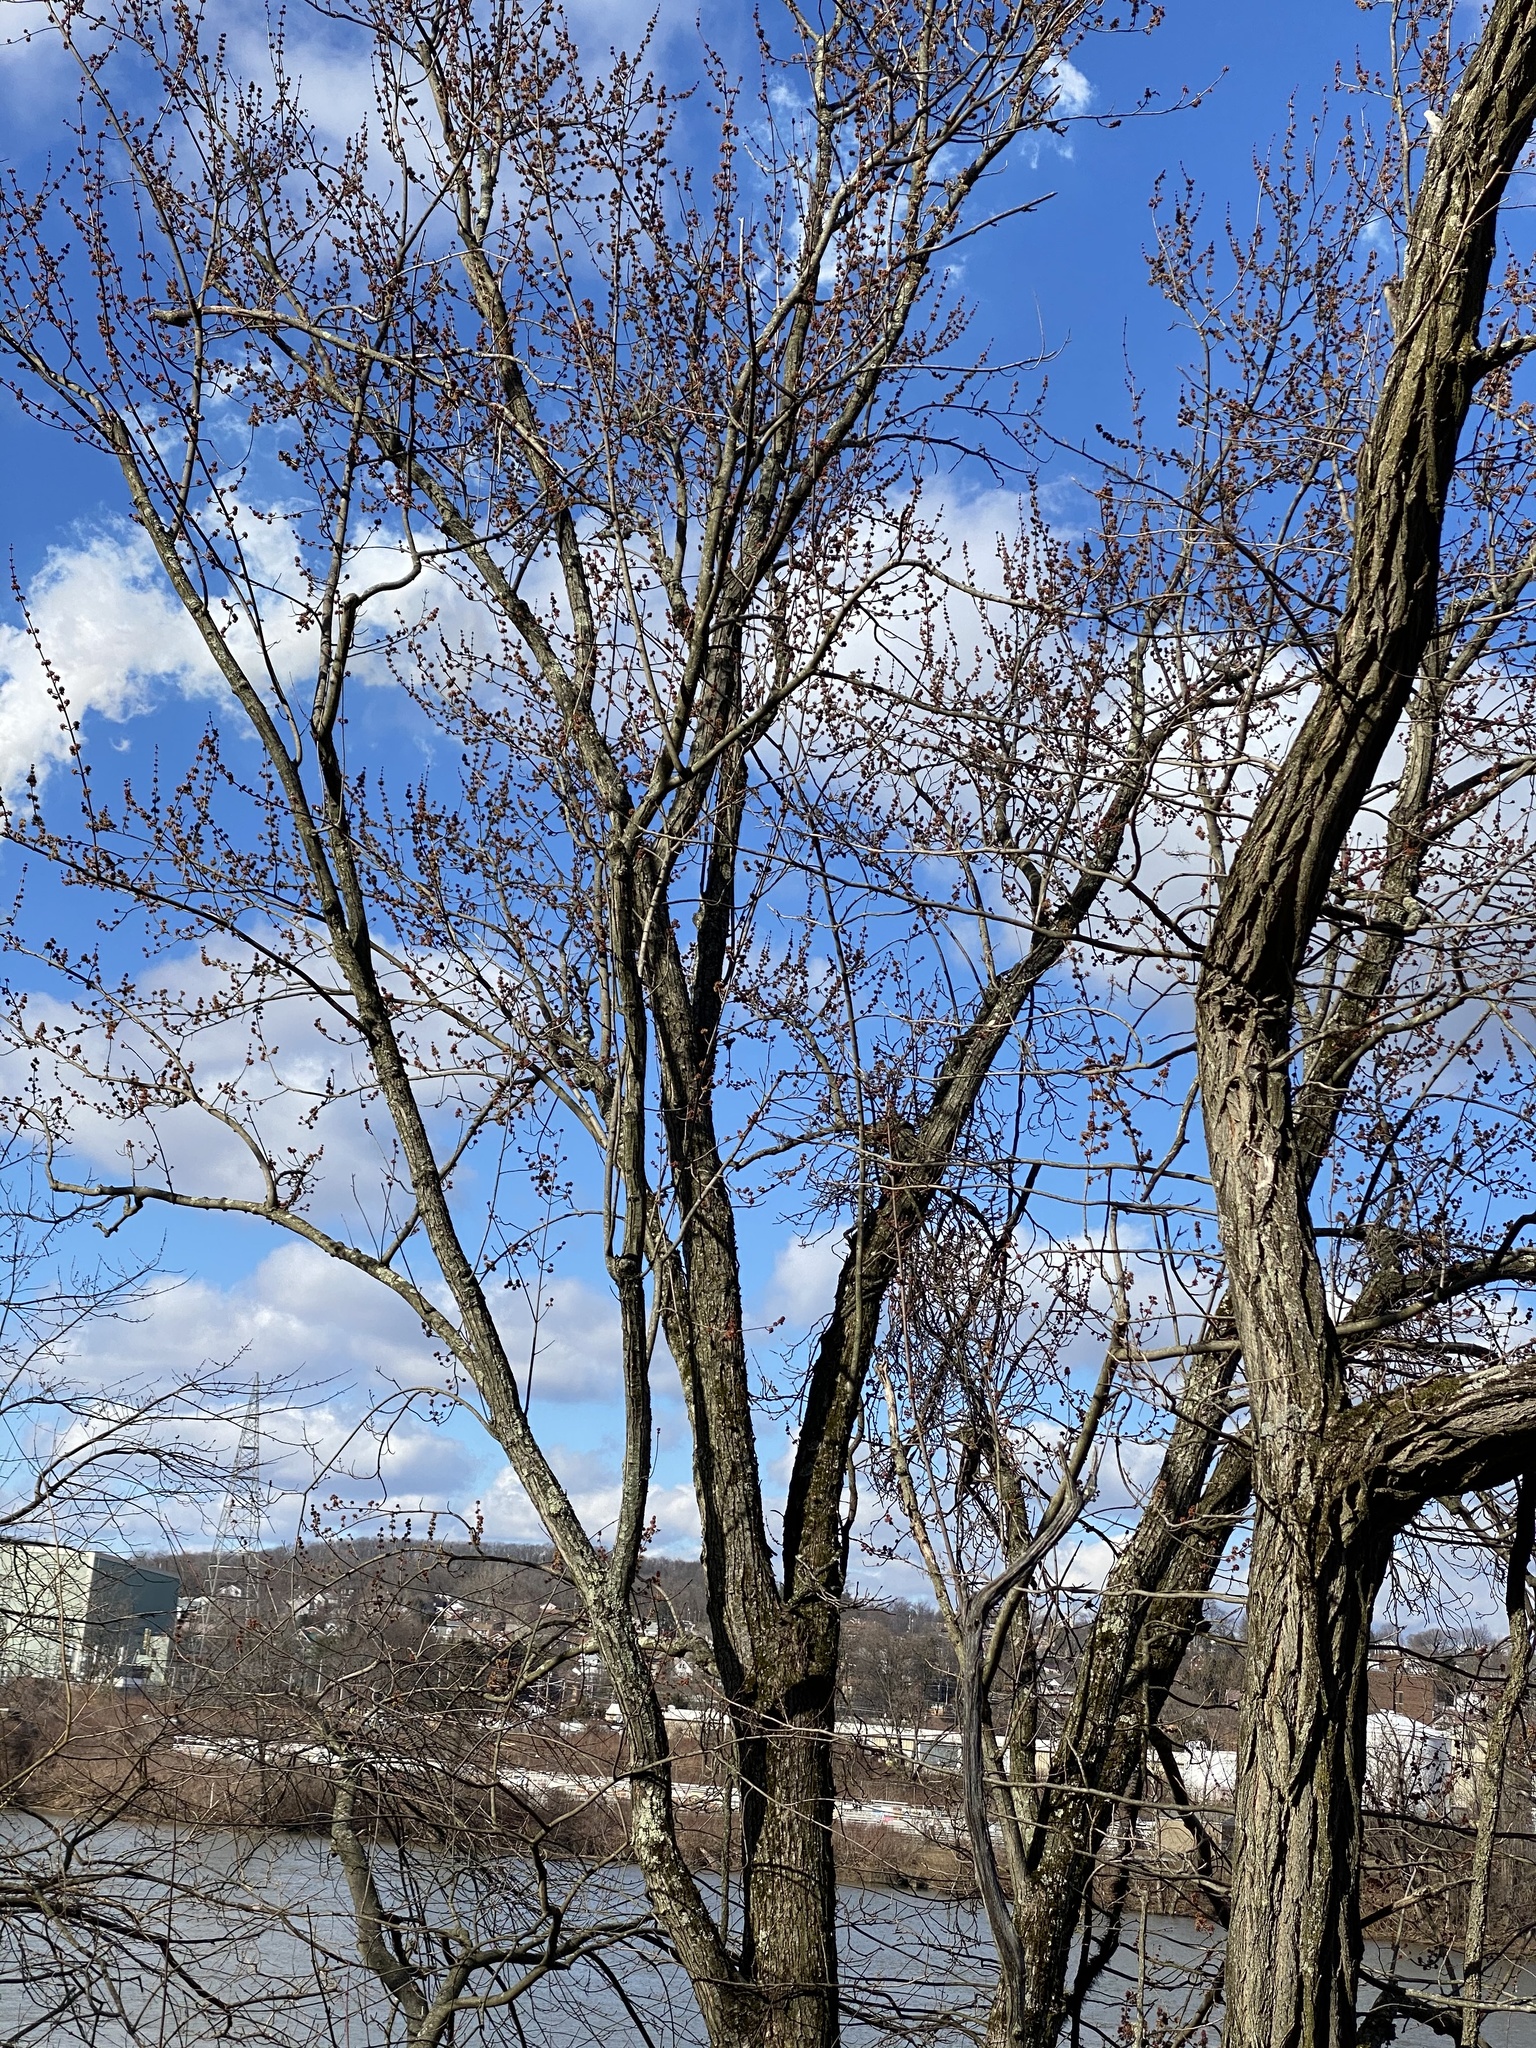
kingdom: Plantae
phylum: Tracheophyta
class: Magnoliopsida
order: Sapindales
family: Sapindaceae
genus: Acer
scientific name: Acer saccharinum
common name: Silver maple
